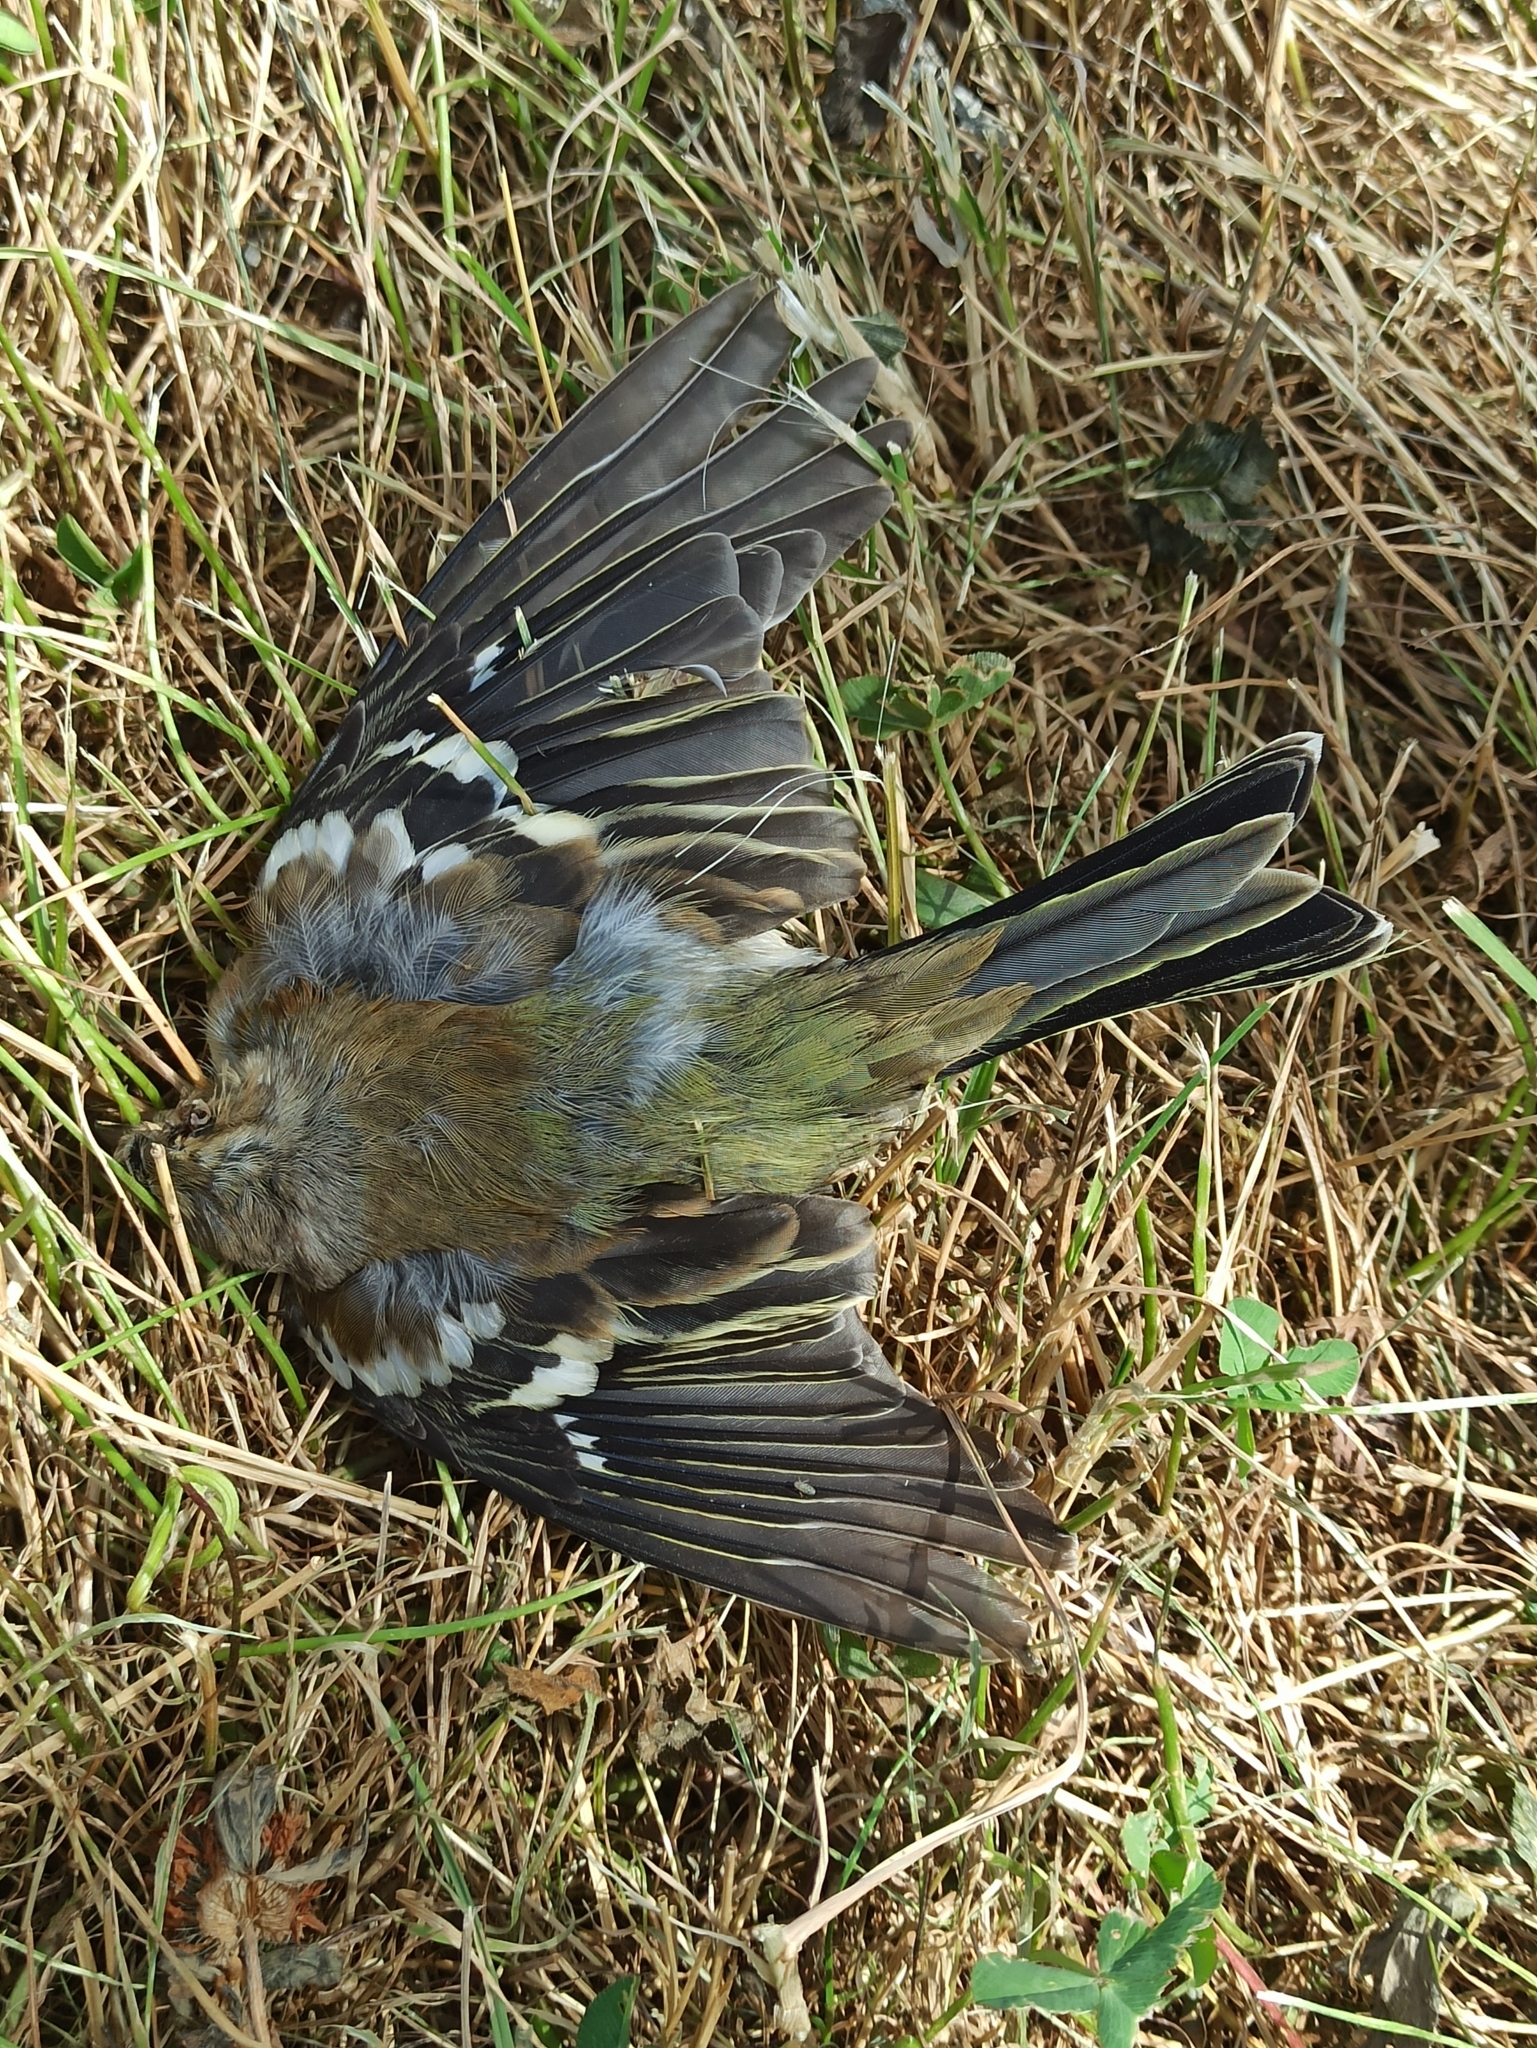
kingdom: Animalia
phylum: Chordata
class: Aves
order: Passeriformes
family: Fringillidae
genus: Fringilla
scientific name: Fringilla coelebs
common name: Common chaffinch
